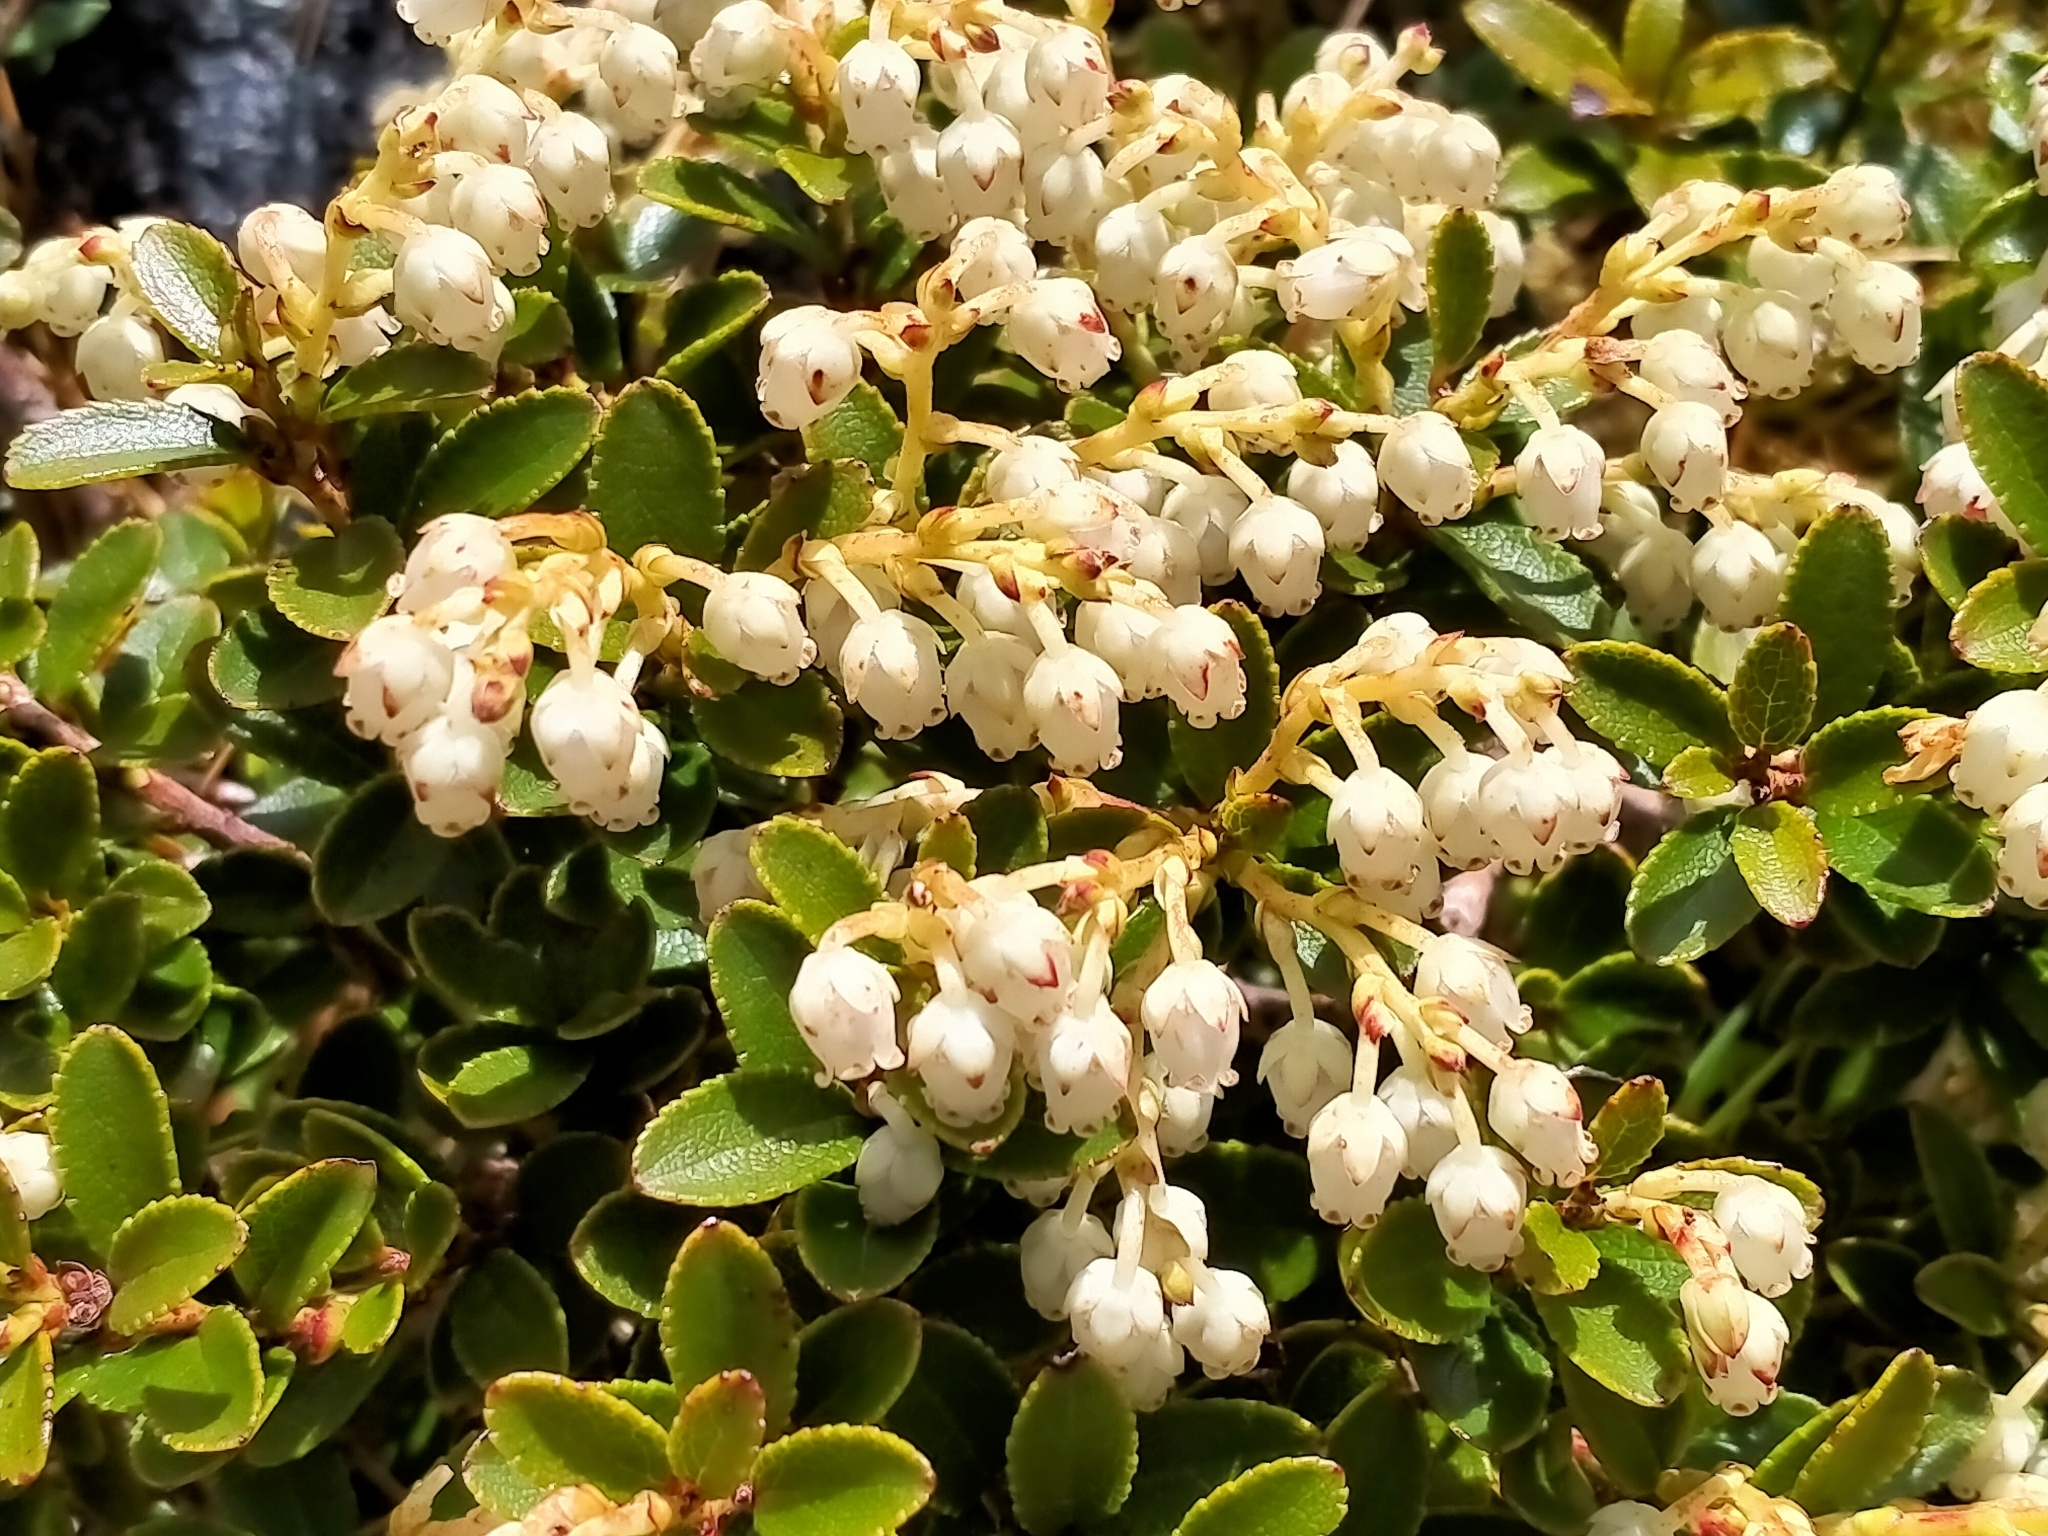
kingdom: Plantae
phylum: Tracheophyta
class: Magnoliopsida
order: Ericales
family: Ericaceae
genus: Gaultheria
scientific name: Gaultheria crassa
